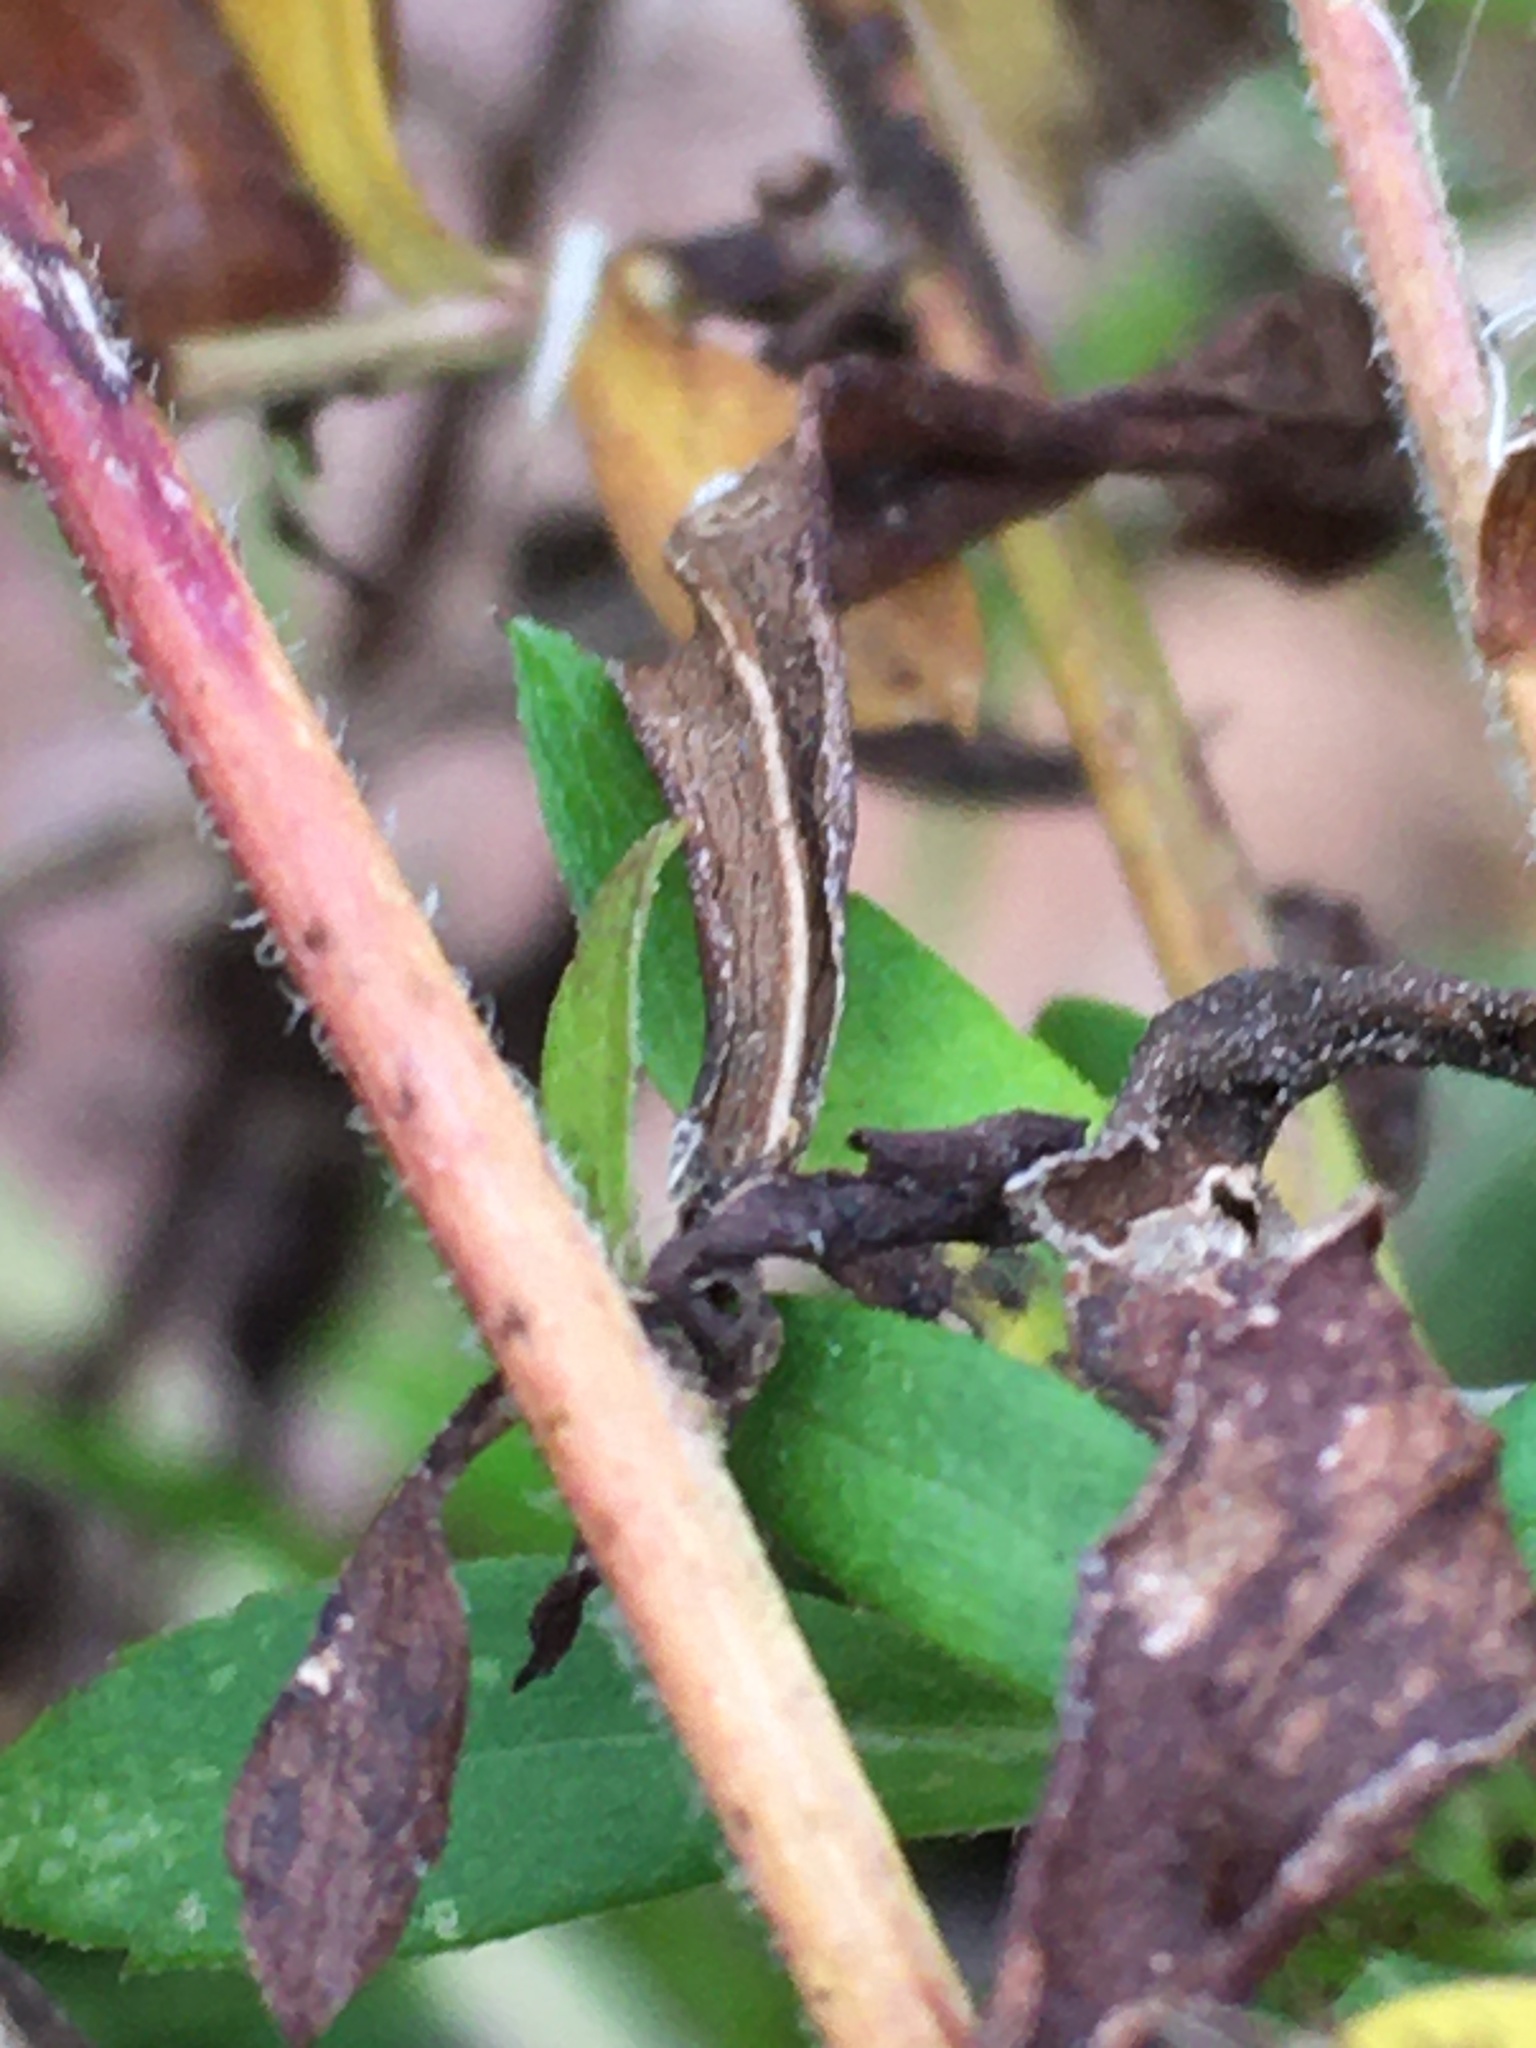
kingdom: Plantae
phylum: Tracheophyta
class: Magnoliopsida
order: Asterales
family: Asteraceae
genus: Symphyotrichum
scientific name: Symphyotrichum pilosum
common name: Awl aster
